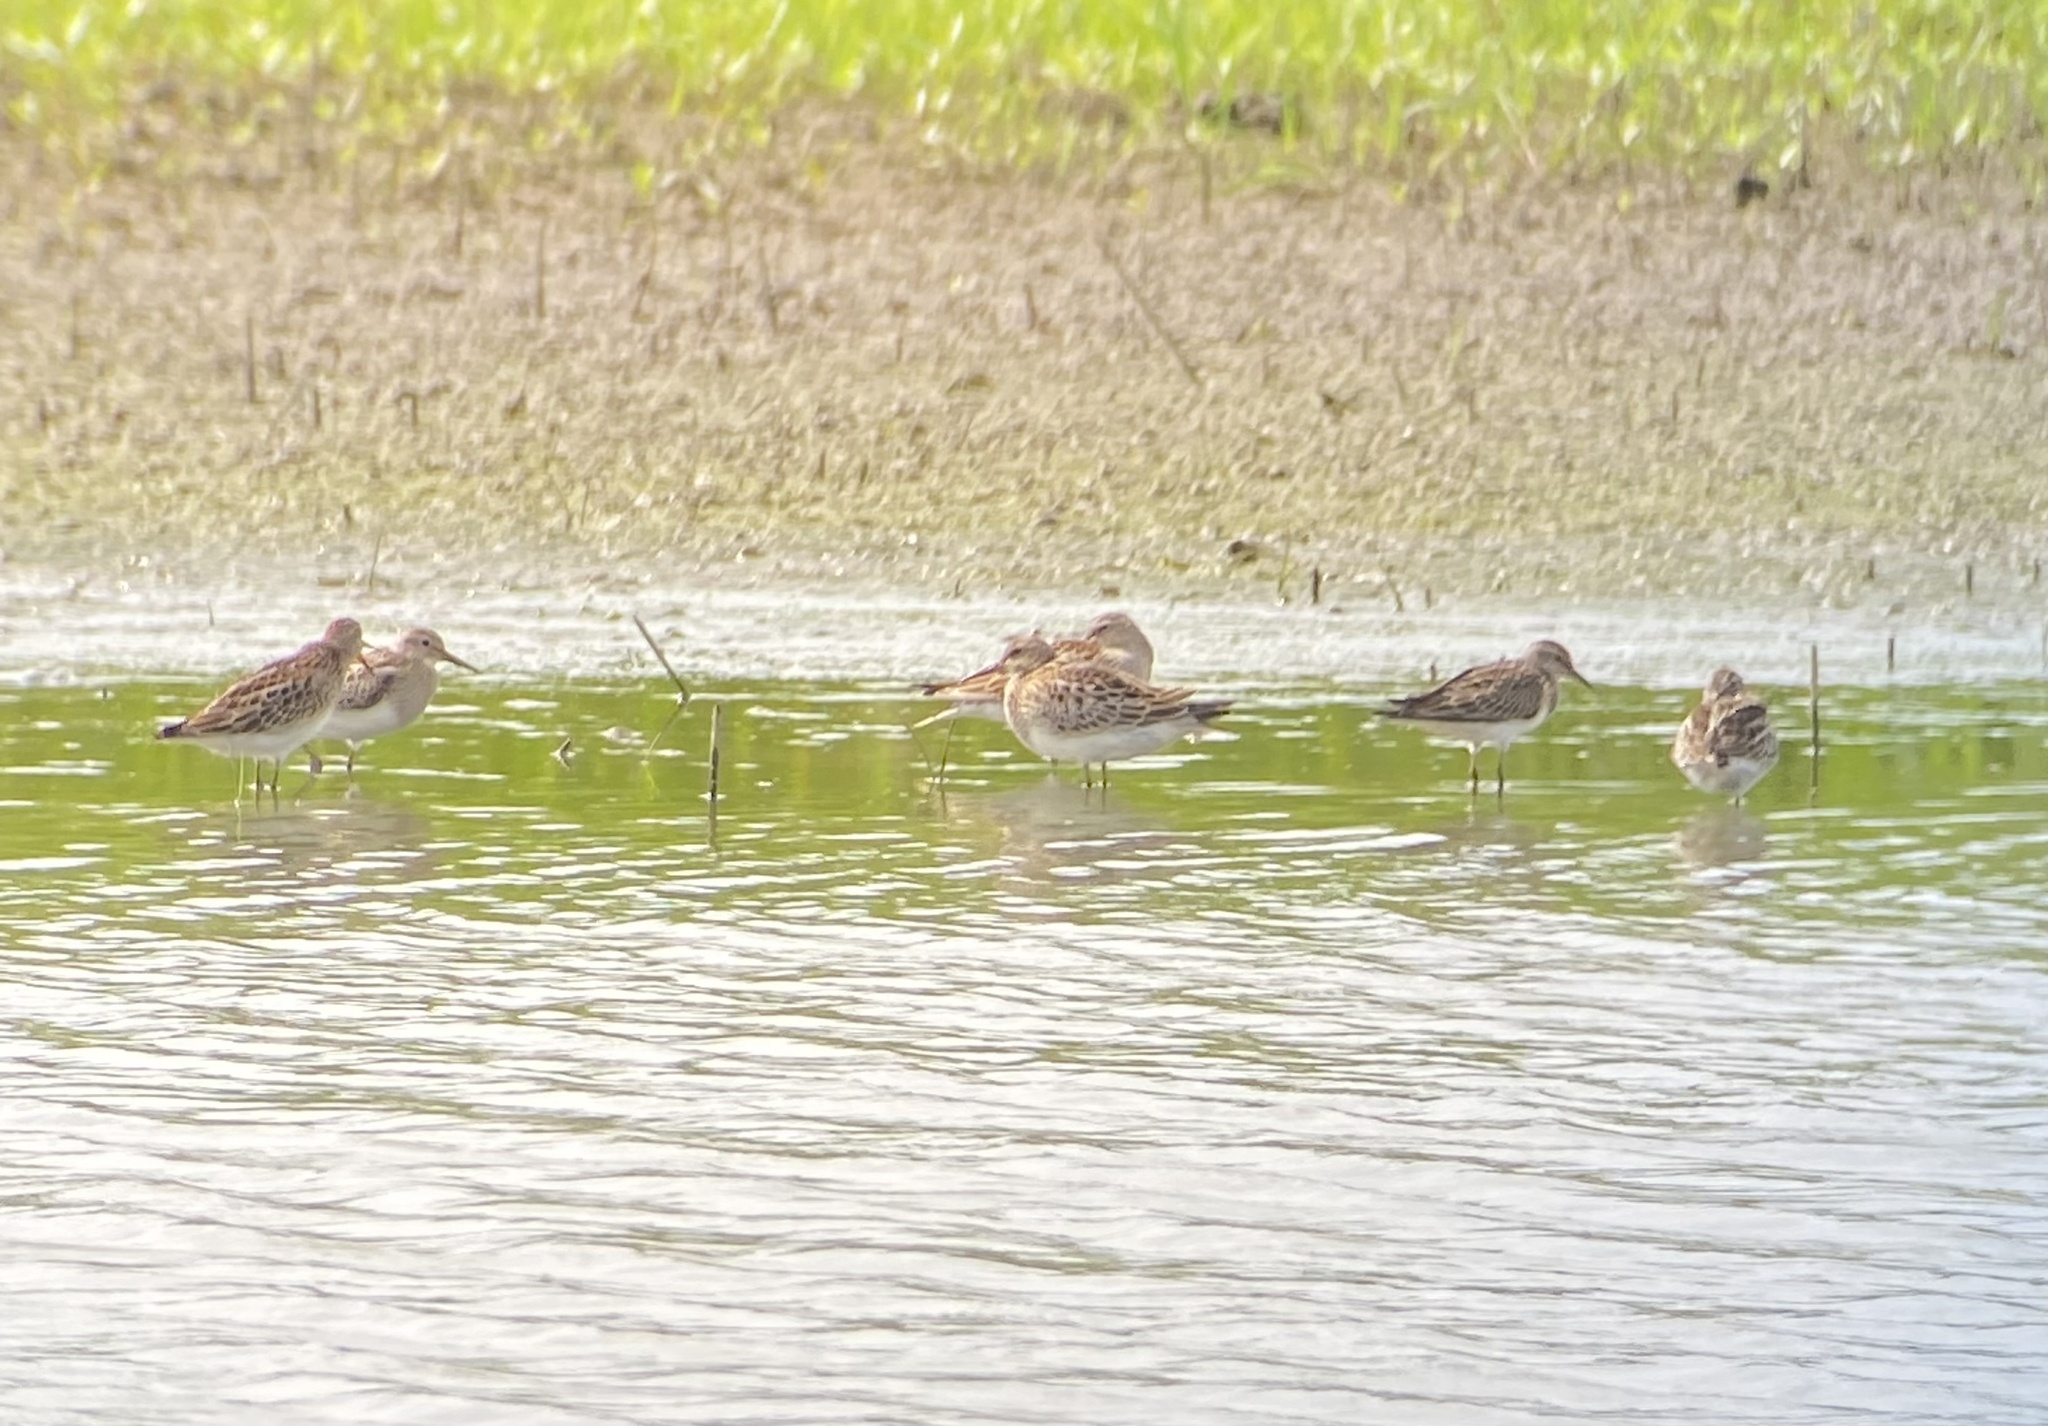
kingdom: Animalia
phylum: Chordata
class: Aves
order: Charadriiformes
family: Scolopacidae
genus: Calidris
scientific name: Calidris melanotos
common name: Pectoral sandpiper
